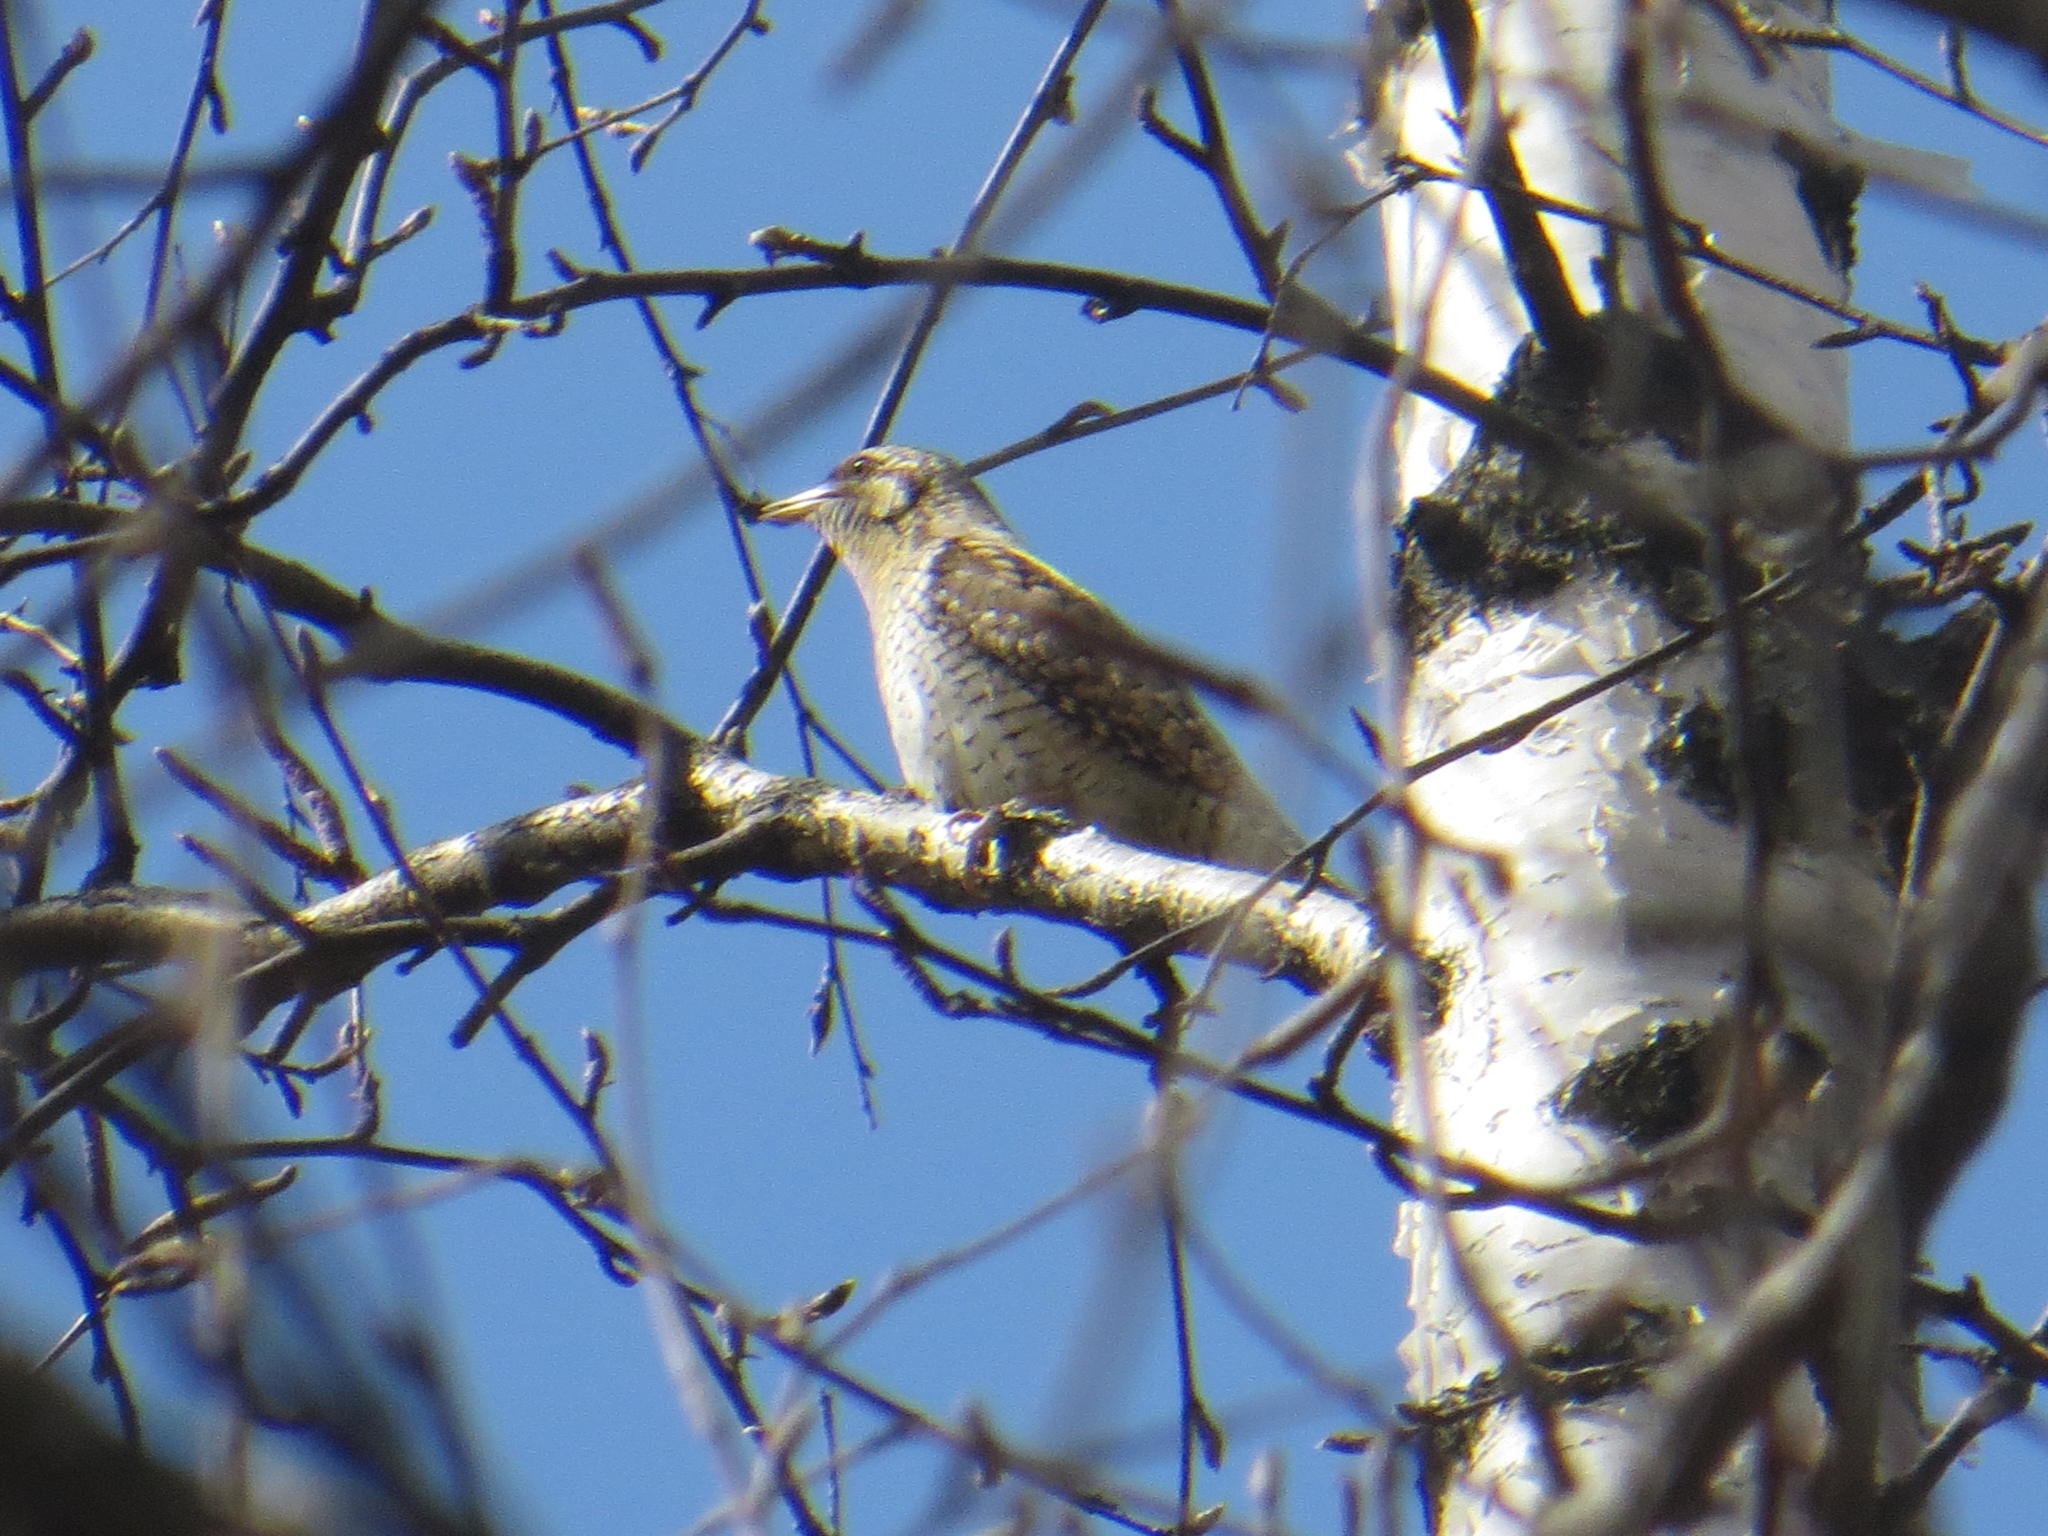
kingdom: Animalia
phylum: Chordata
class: Aves
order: Piciformes
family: Picidae
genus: Jynx
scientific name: Jynx torquilla
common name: Eurasian wryneck
